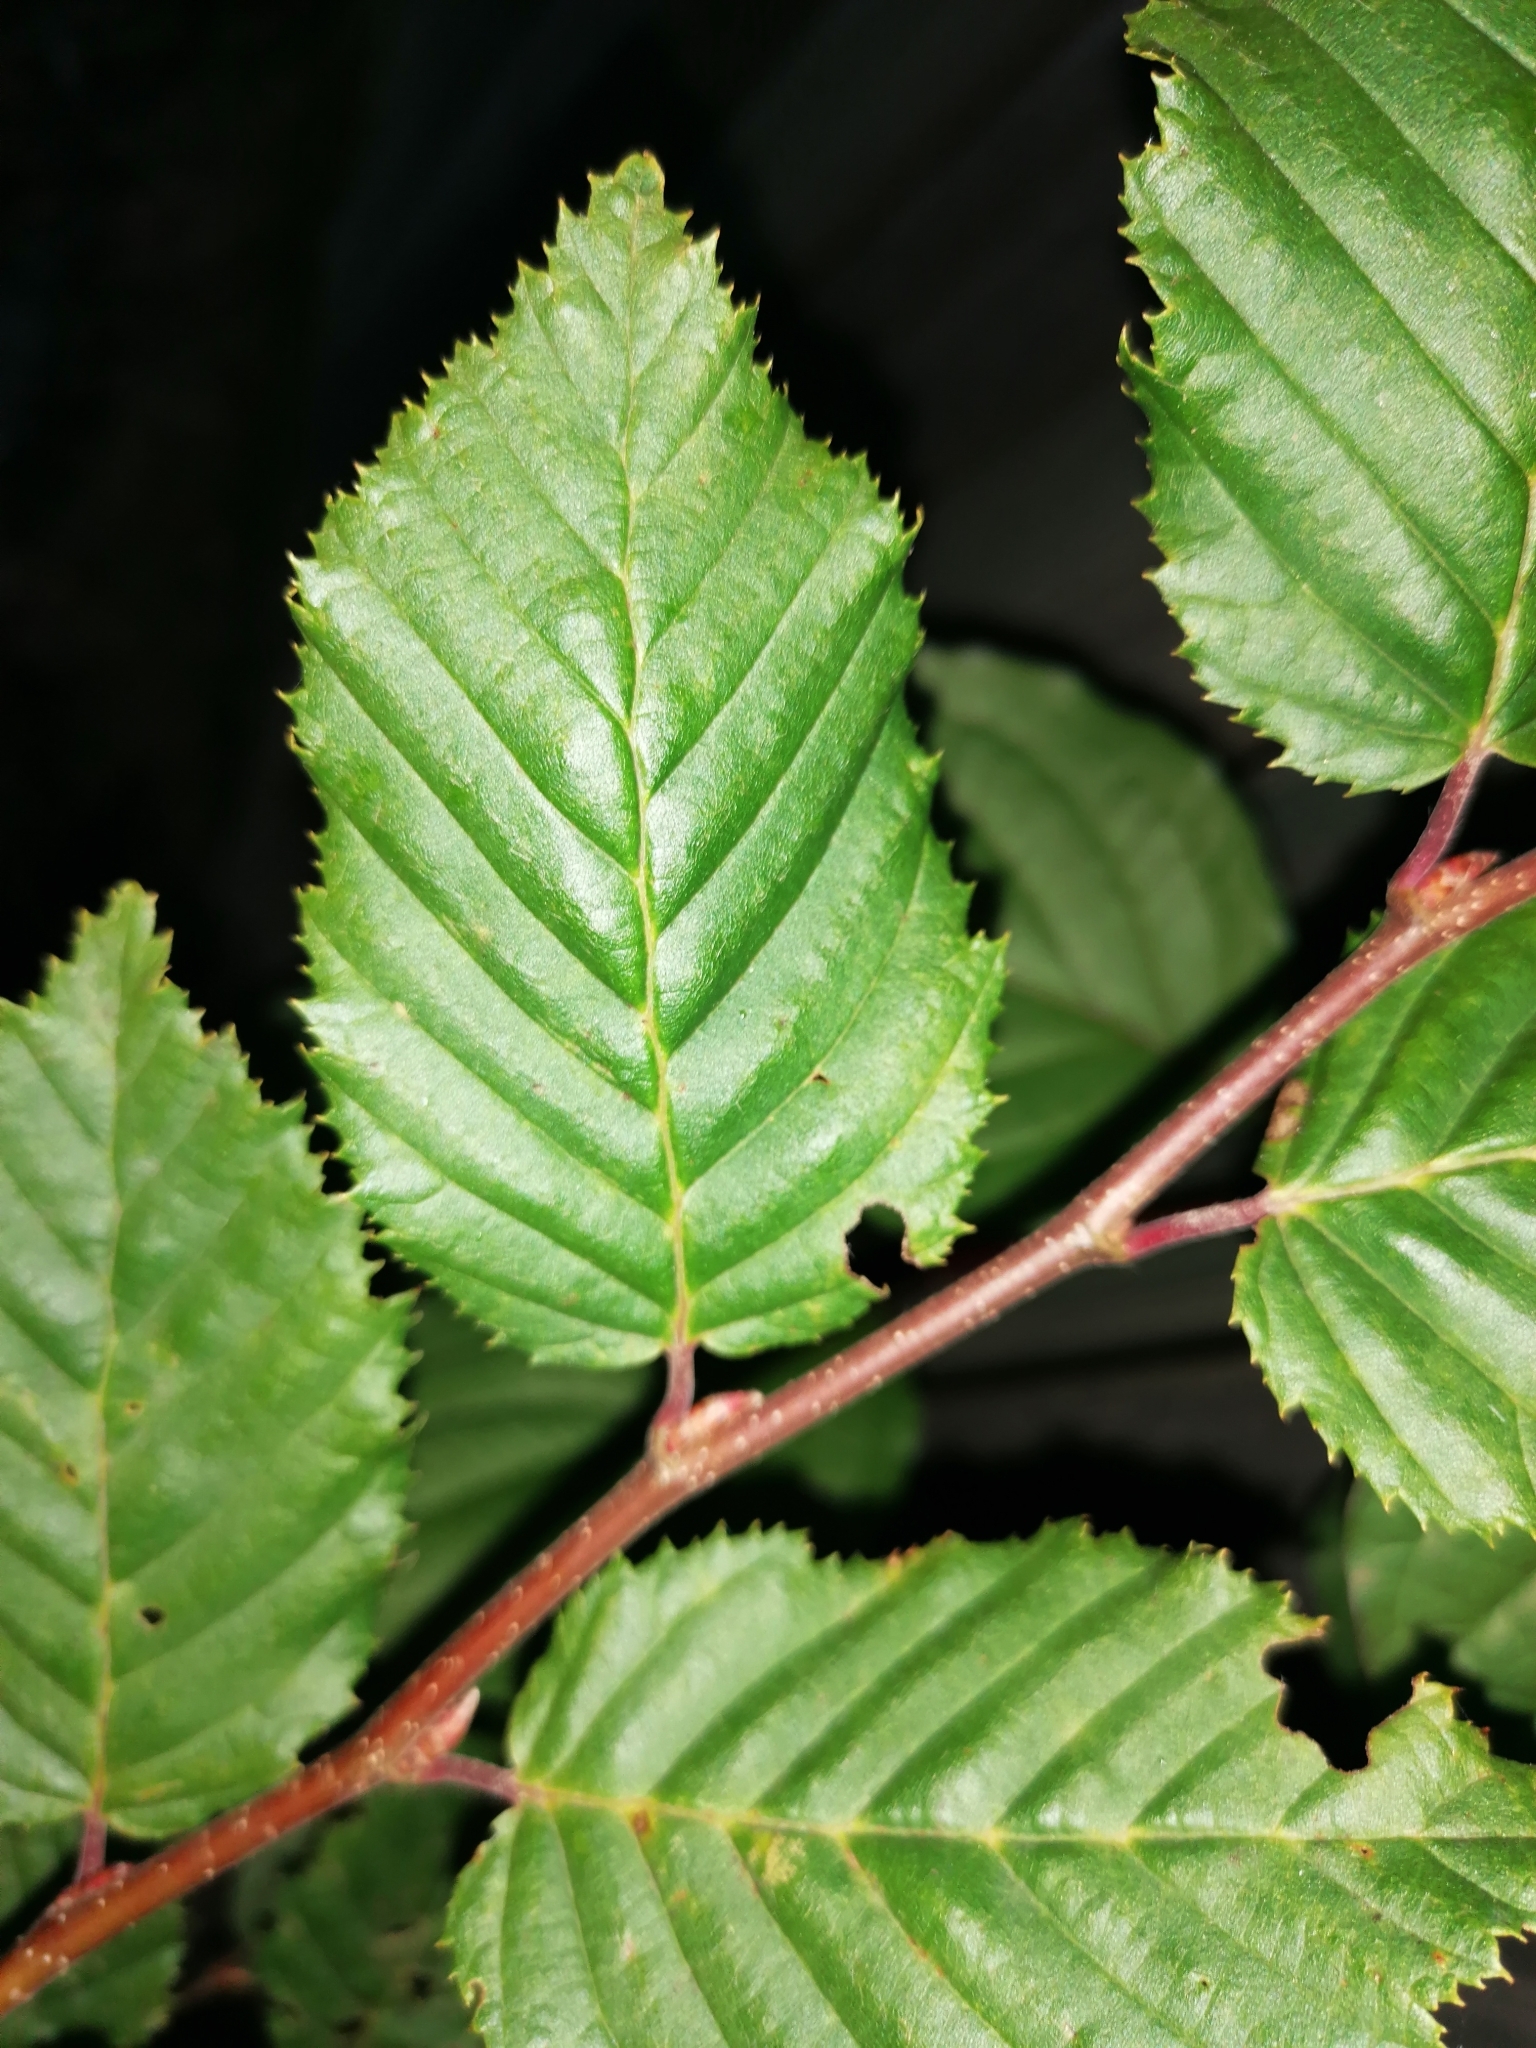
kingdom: Plantae
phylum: Tracheophyta
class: Magnoliopsida
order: Fagales
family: Betulaceae
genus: Carpinus
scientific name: Carpinus betulus
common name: Hornbeam
